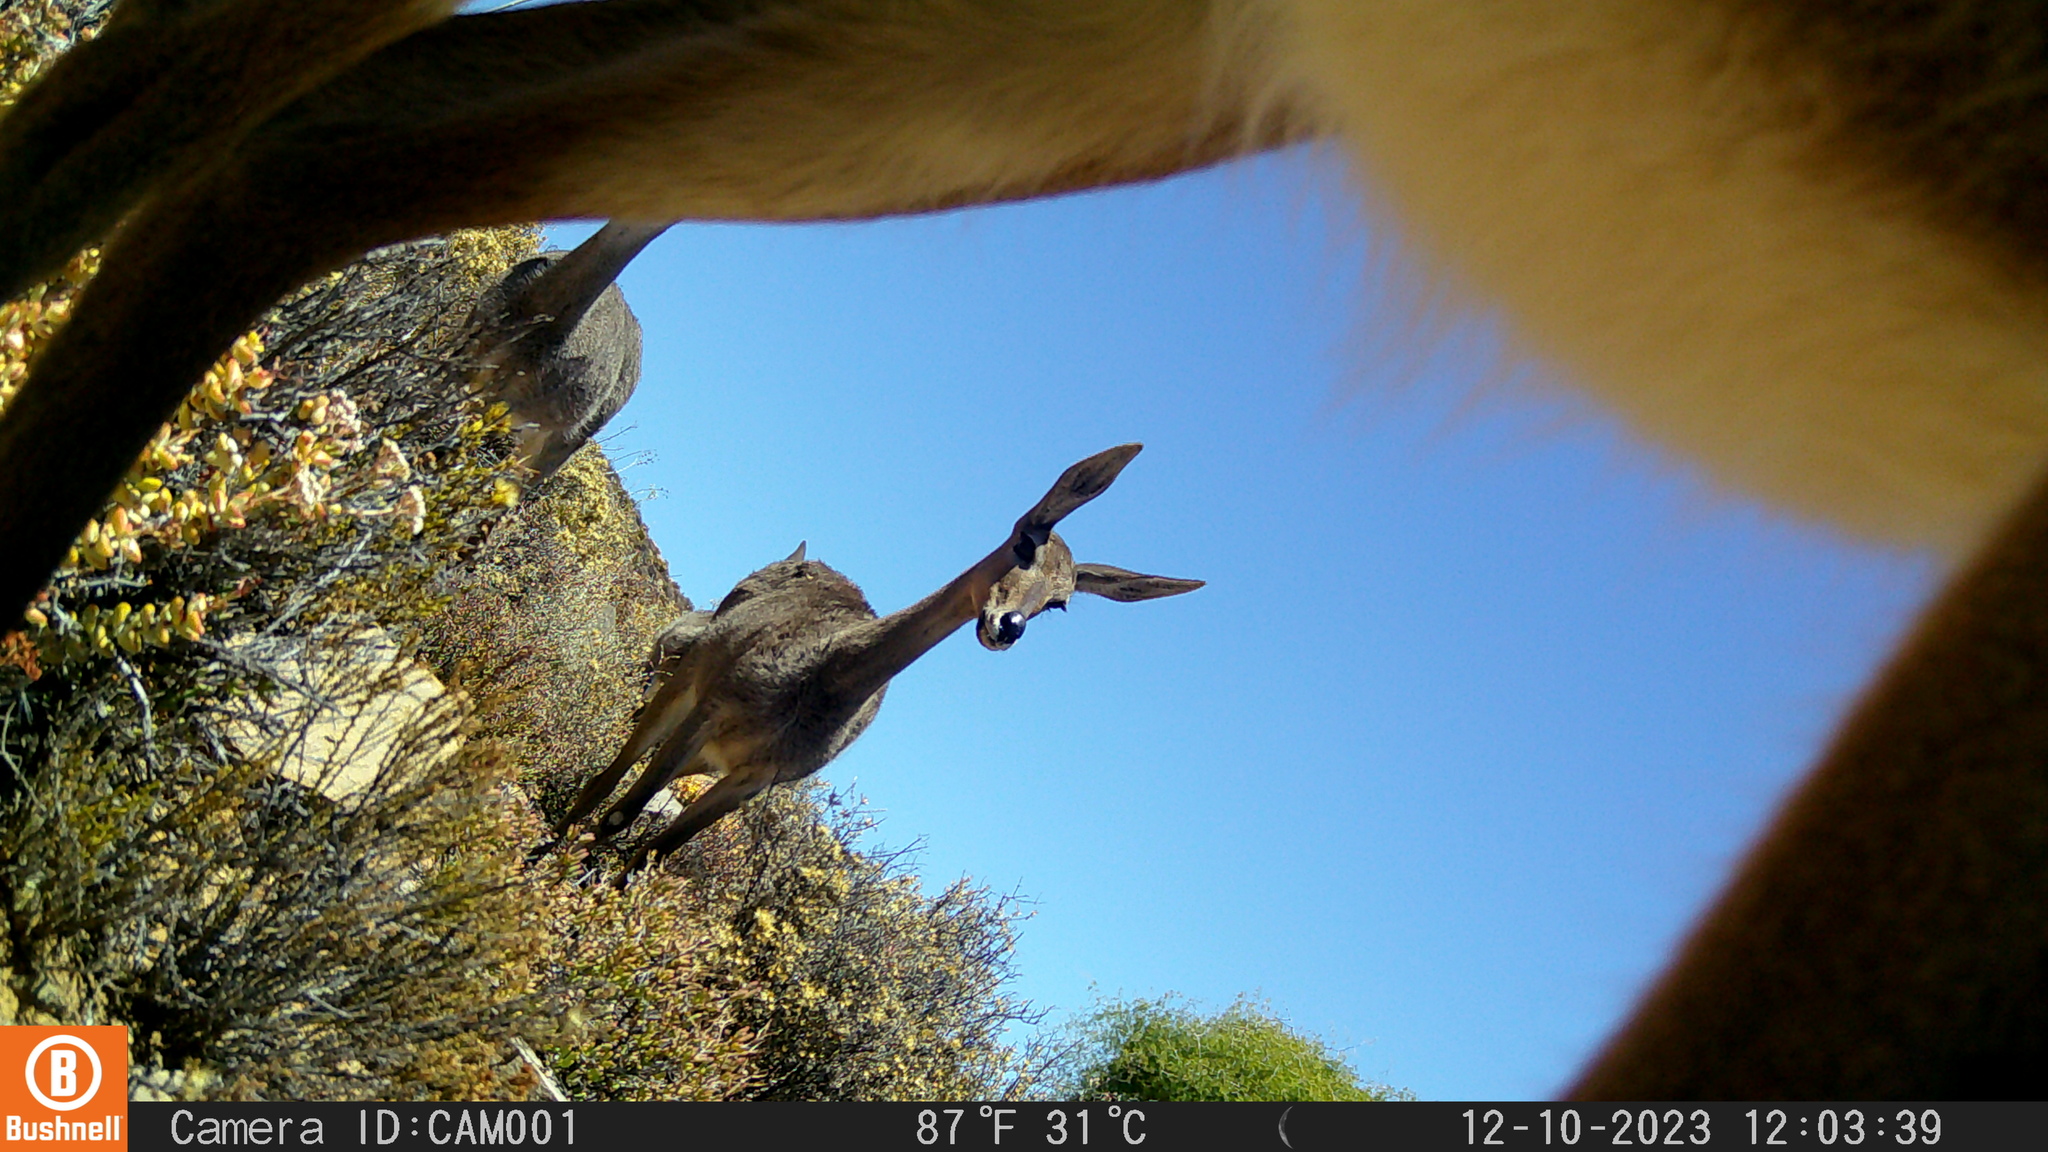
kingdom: Animalia
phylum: Chordata
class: Mammalia
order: Artiodactyla
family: Bovidae
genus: Pelea
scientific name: Pelea capreolus
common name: Common rhebok
